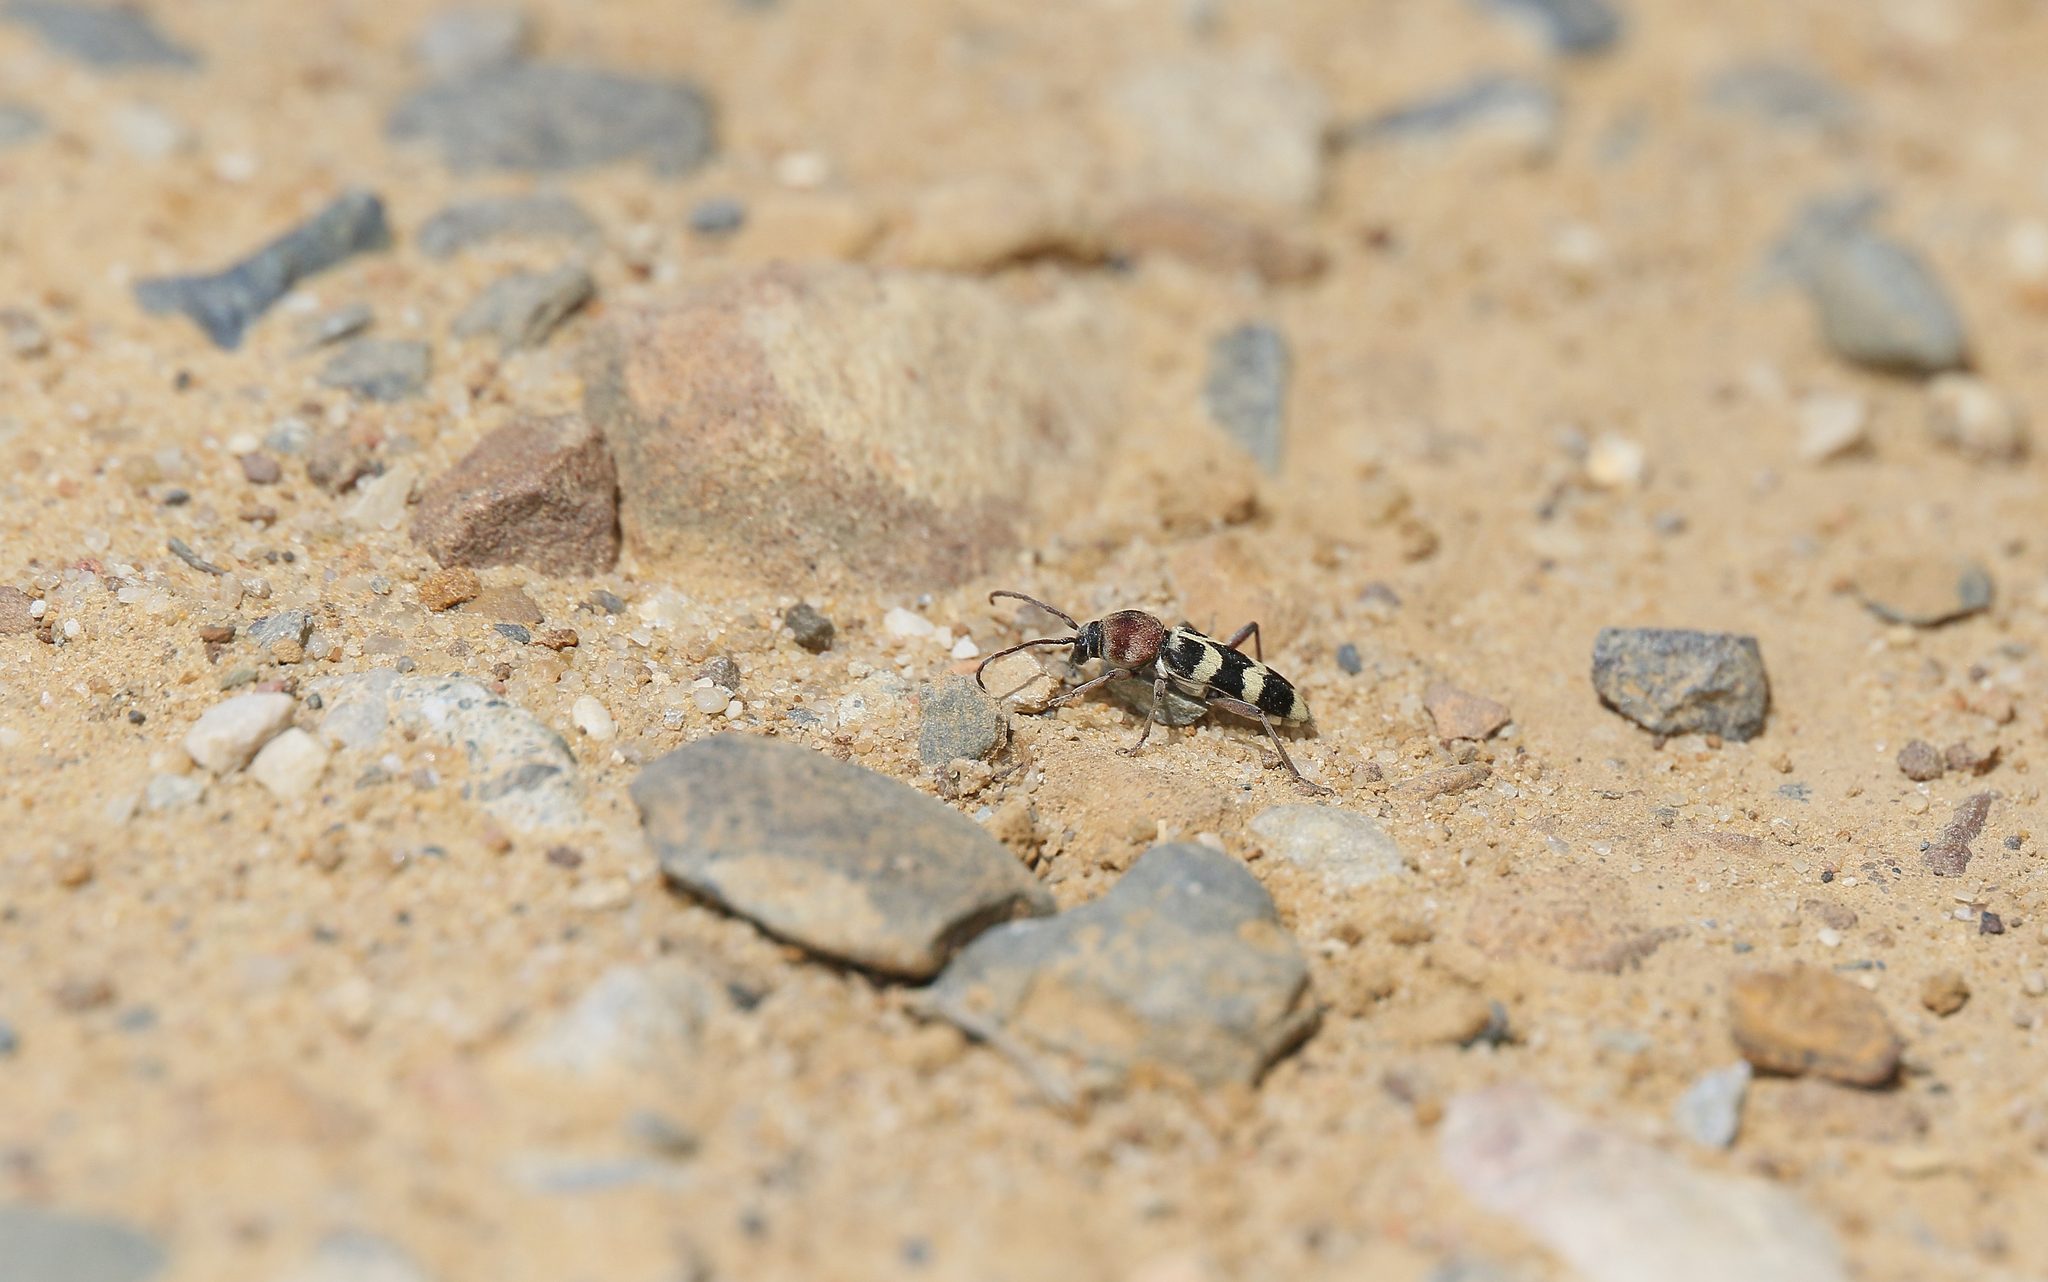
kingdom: Animalia
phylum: Arthropoda
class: Insecta
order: Coleoptera
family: Cerambycidae
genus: Chlorophorus
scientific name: Chlorophorus trifasciatus
